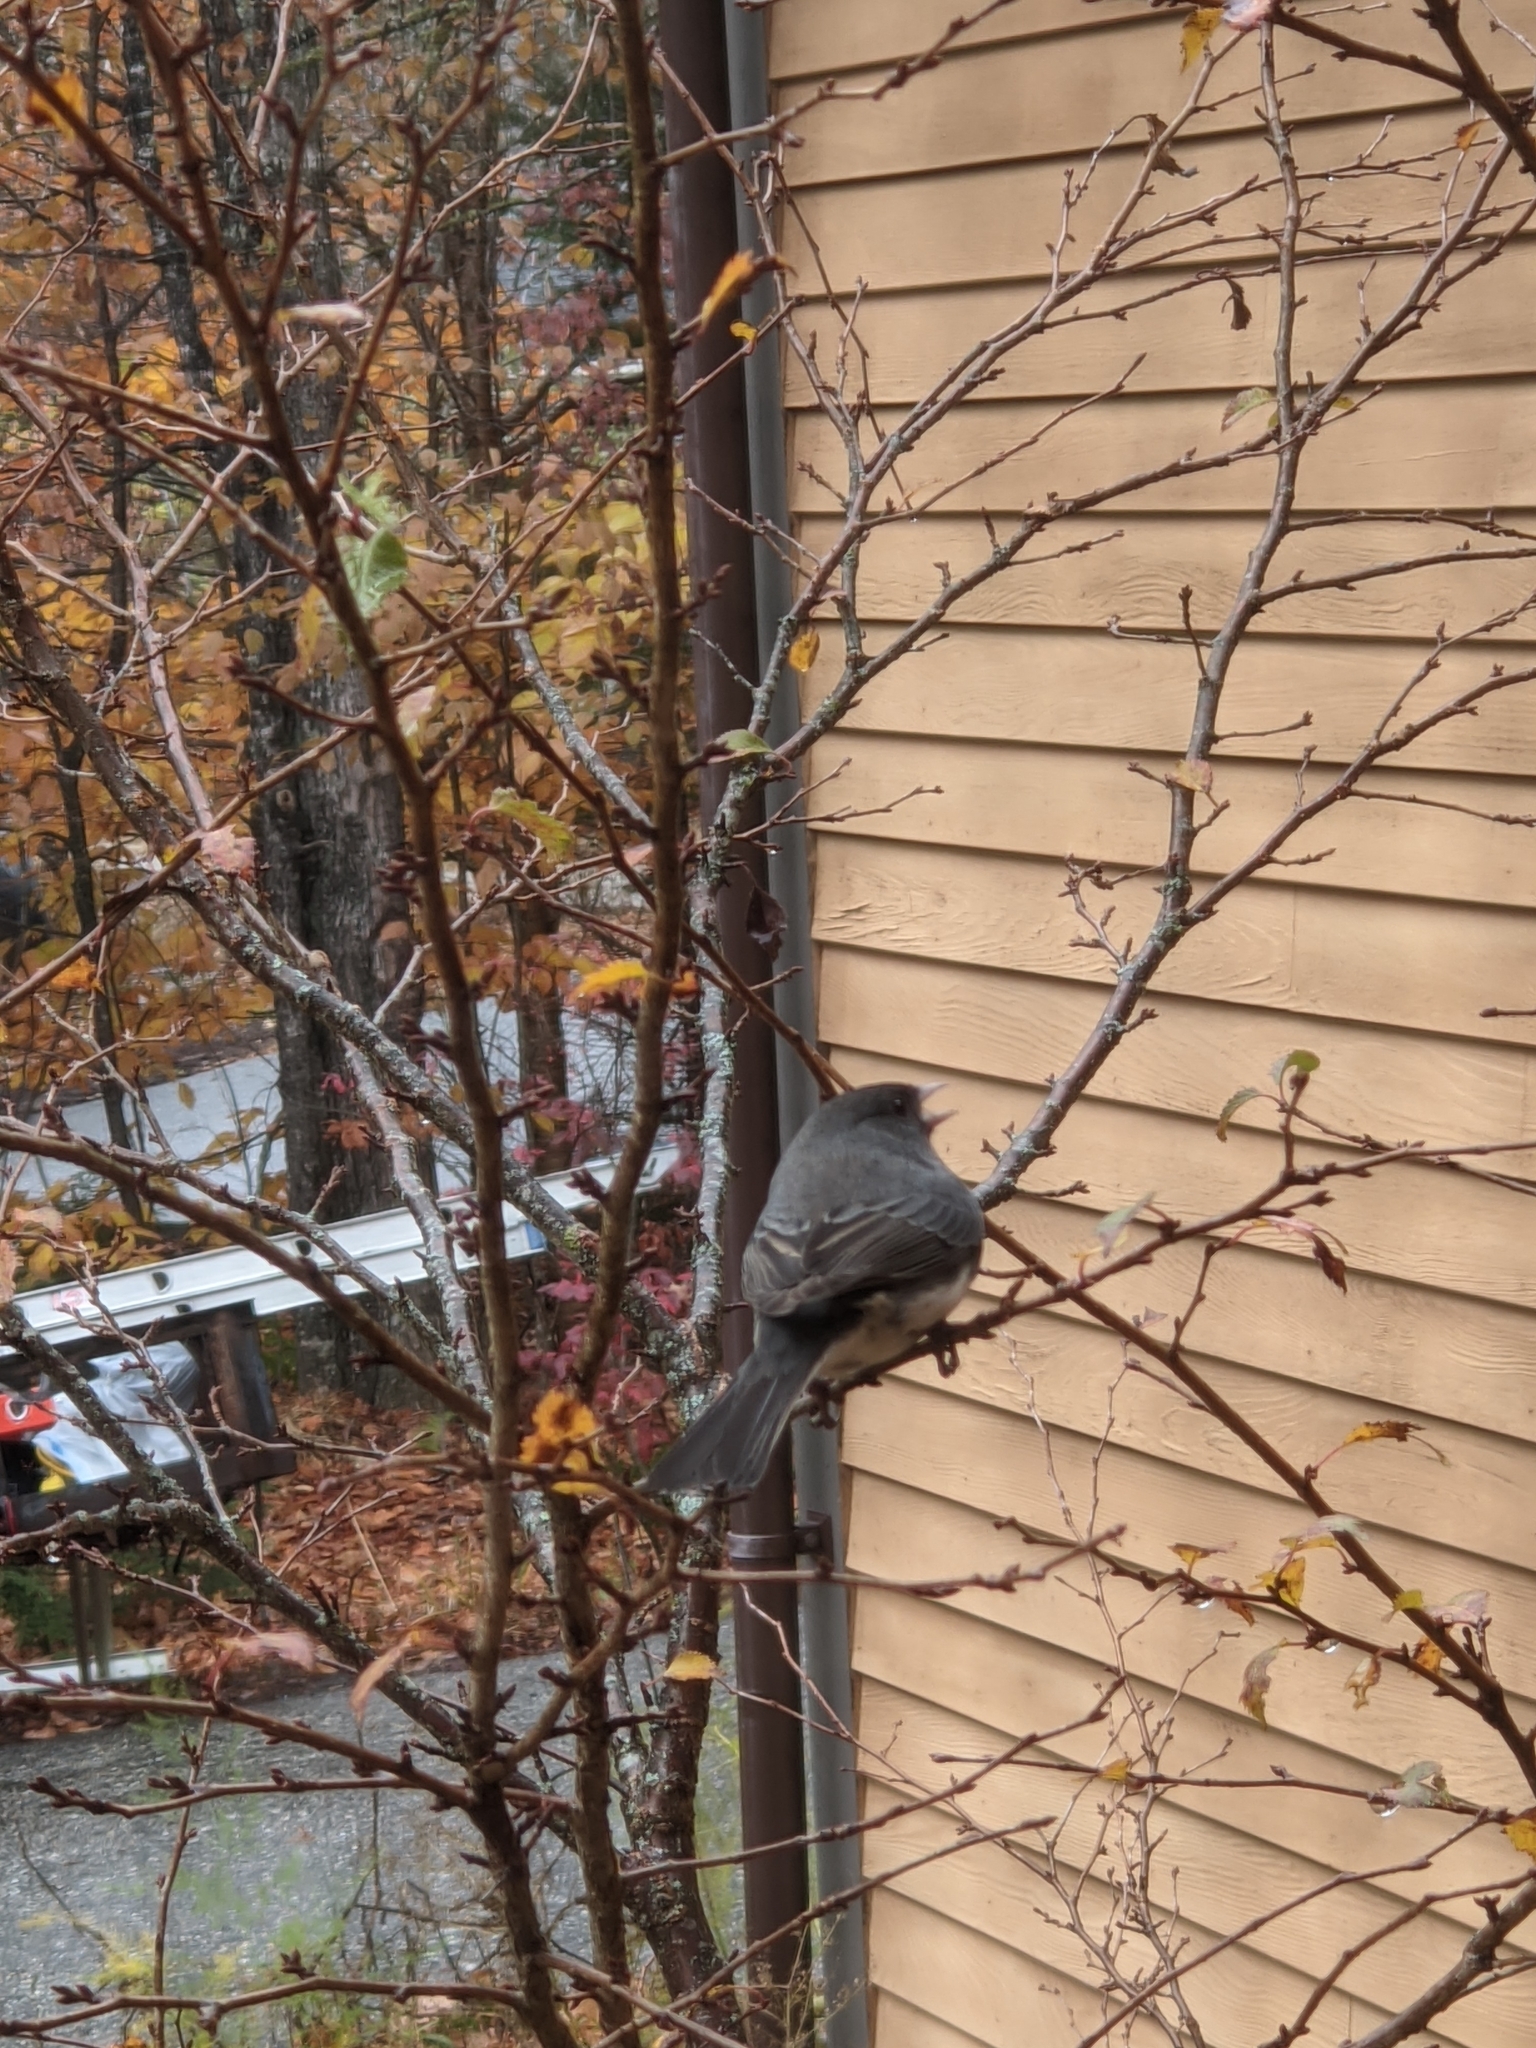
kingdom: Animalia
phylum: Chordata
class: Aves
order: Passeriformes
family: Passerellidae
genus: Junco
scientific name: Junco hyemalis
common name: Dark-eyed junco
